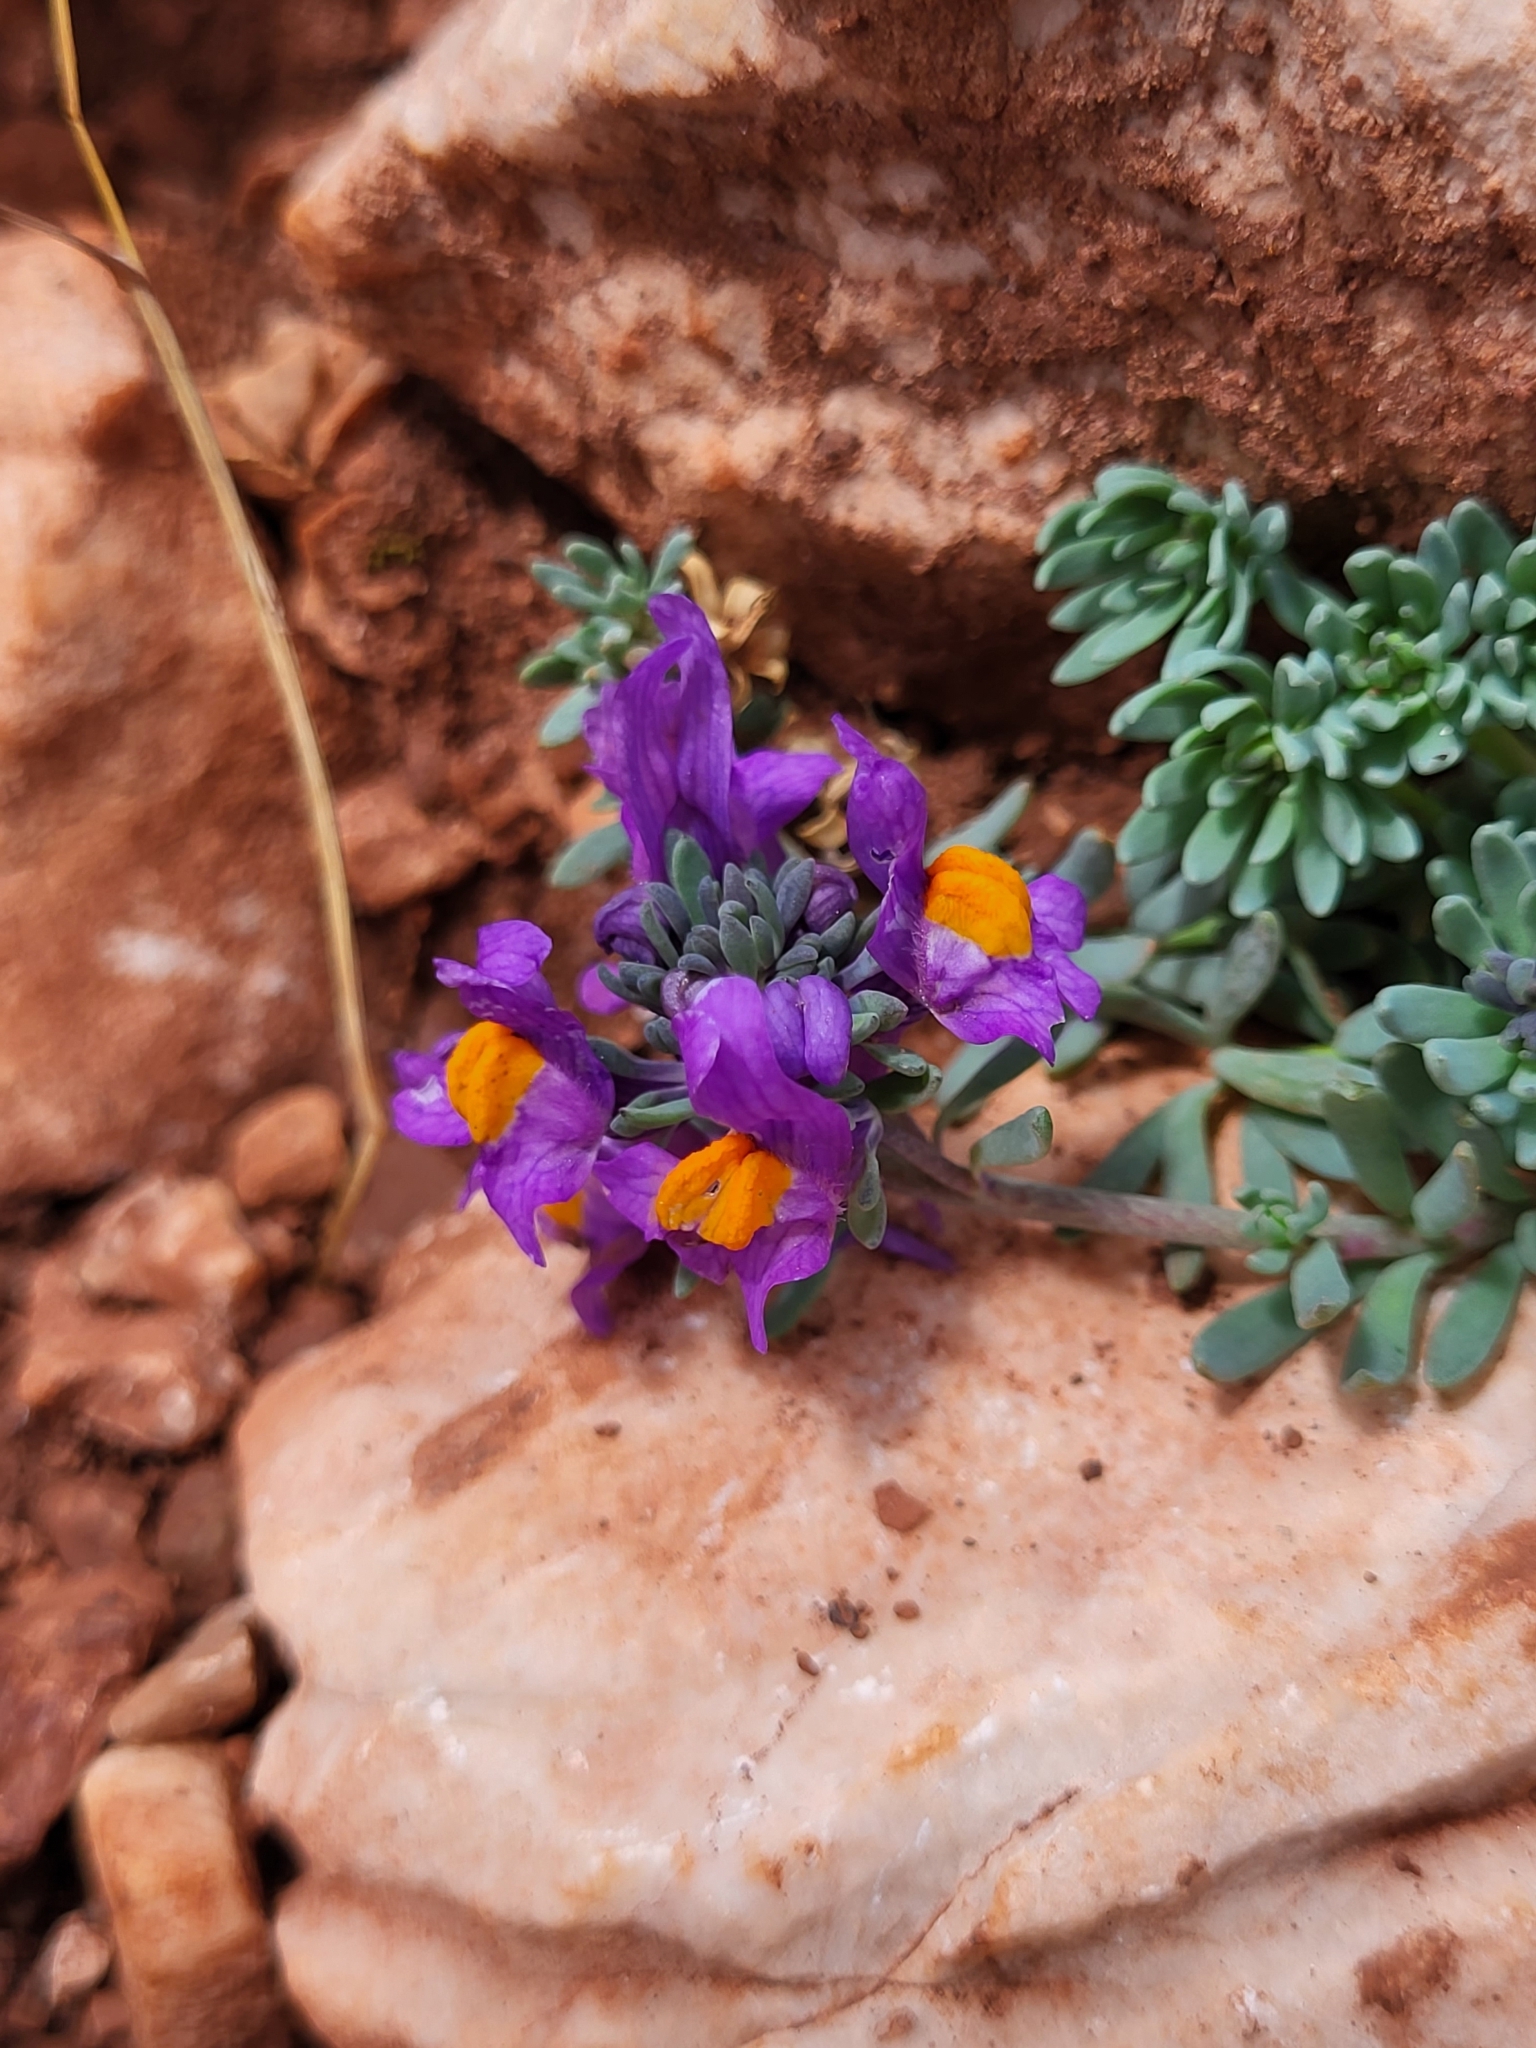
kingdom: Plantae
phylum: Tracheophyta
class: Magnoliopsida
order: Lamiales
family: Plantaginaceae
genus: Linaria
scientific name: Linaria alpina
